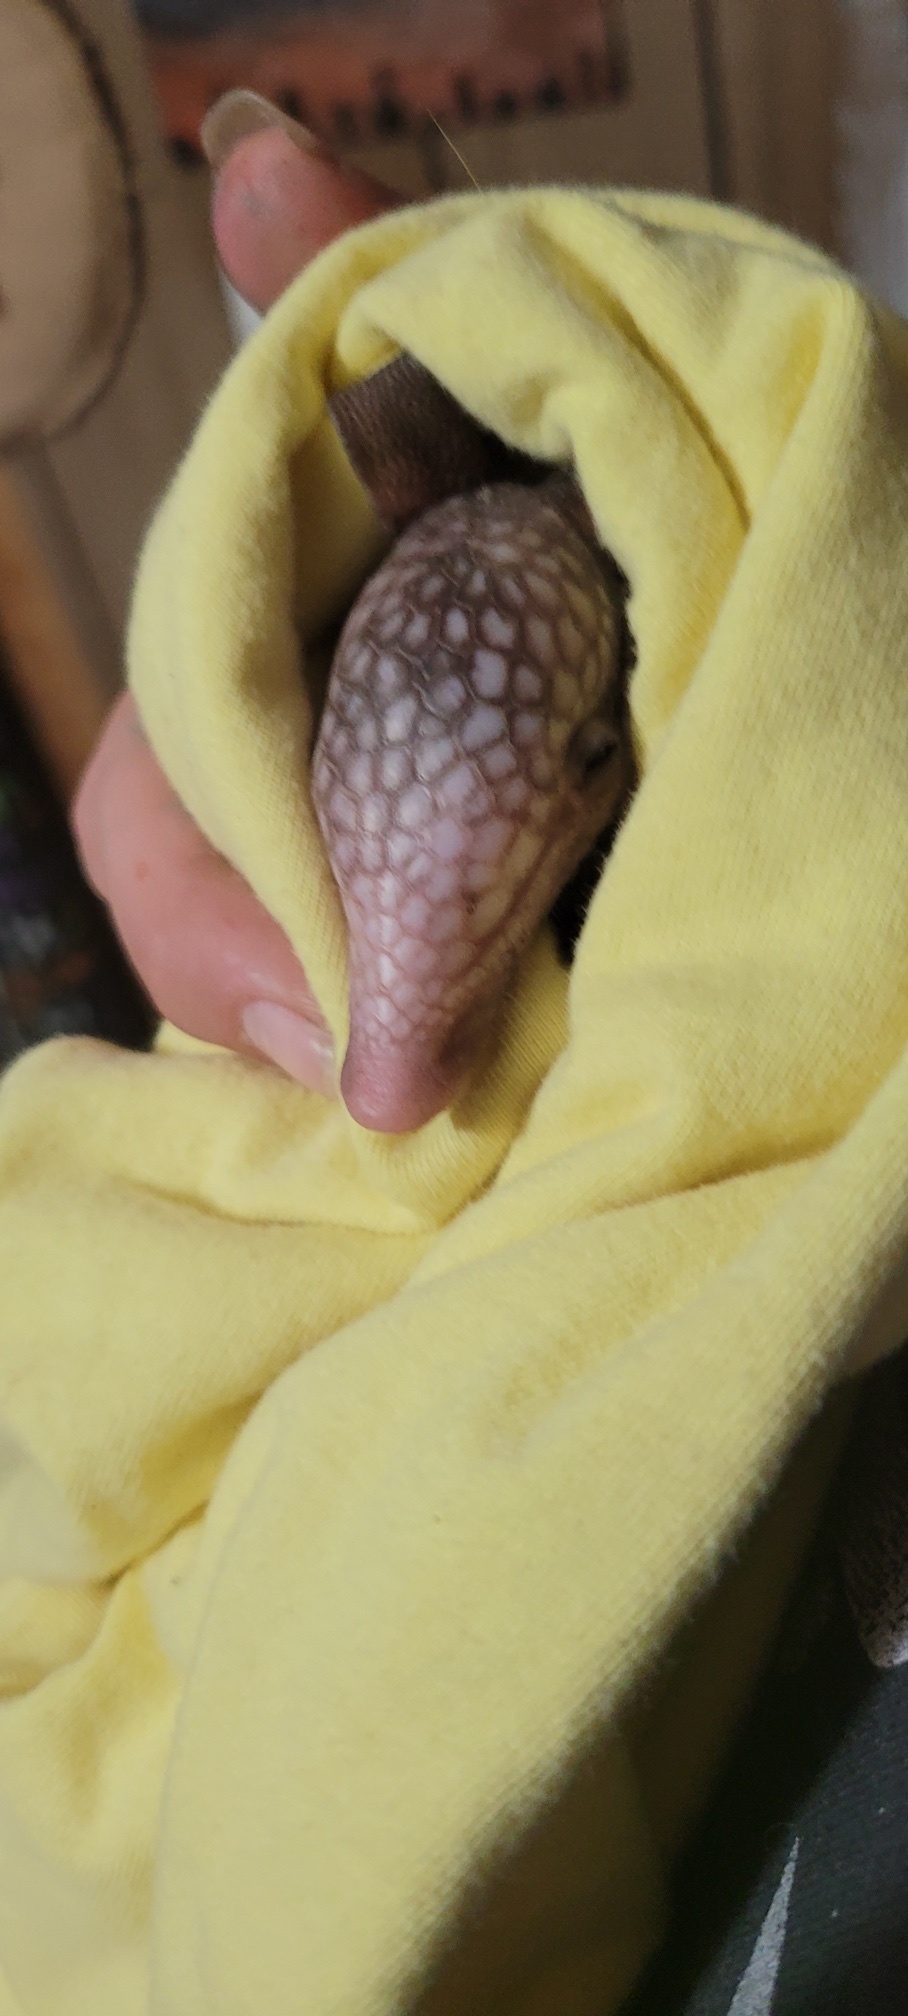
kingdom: Animalia
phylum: Chordata
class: Mammalia
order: Cingulata
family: Dasypodidae
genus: Dasypus
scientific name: Dasypus novemcinctus
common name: Nine-banded armadillo
